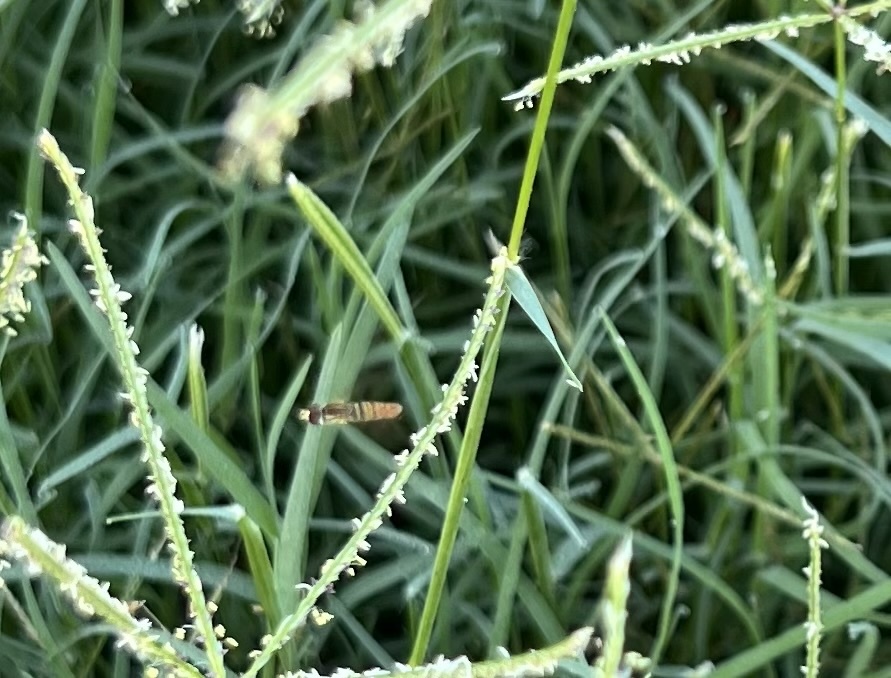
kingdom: Animalia
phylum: Arthropoda
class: Insecta
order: Diptera
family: Syrphidae
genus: Toxomerus
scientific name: Toxomerus politus
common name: Maize calligrapher
